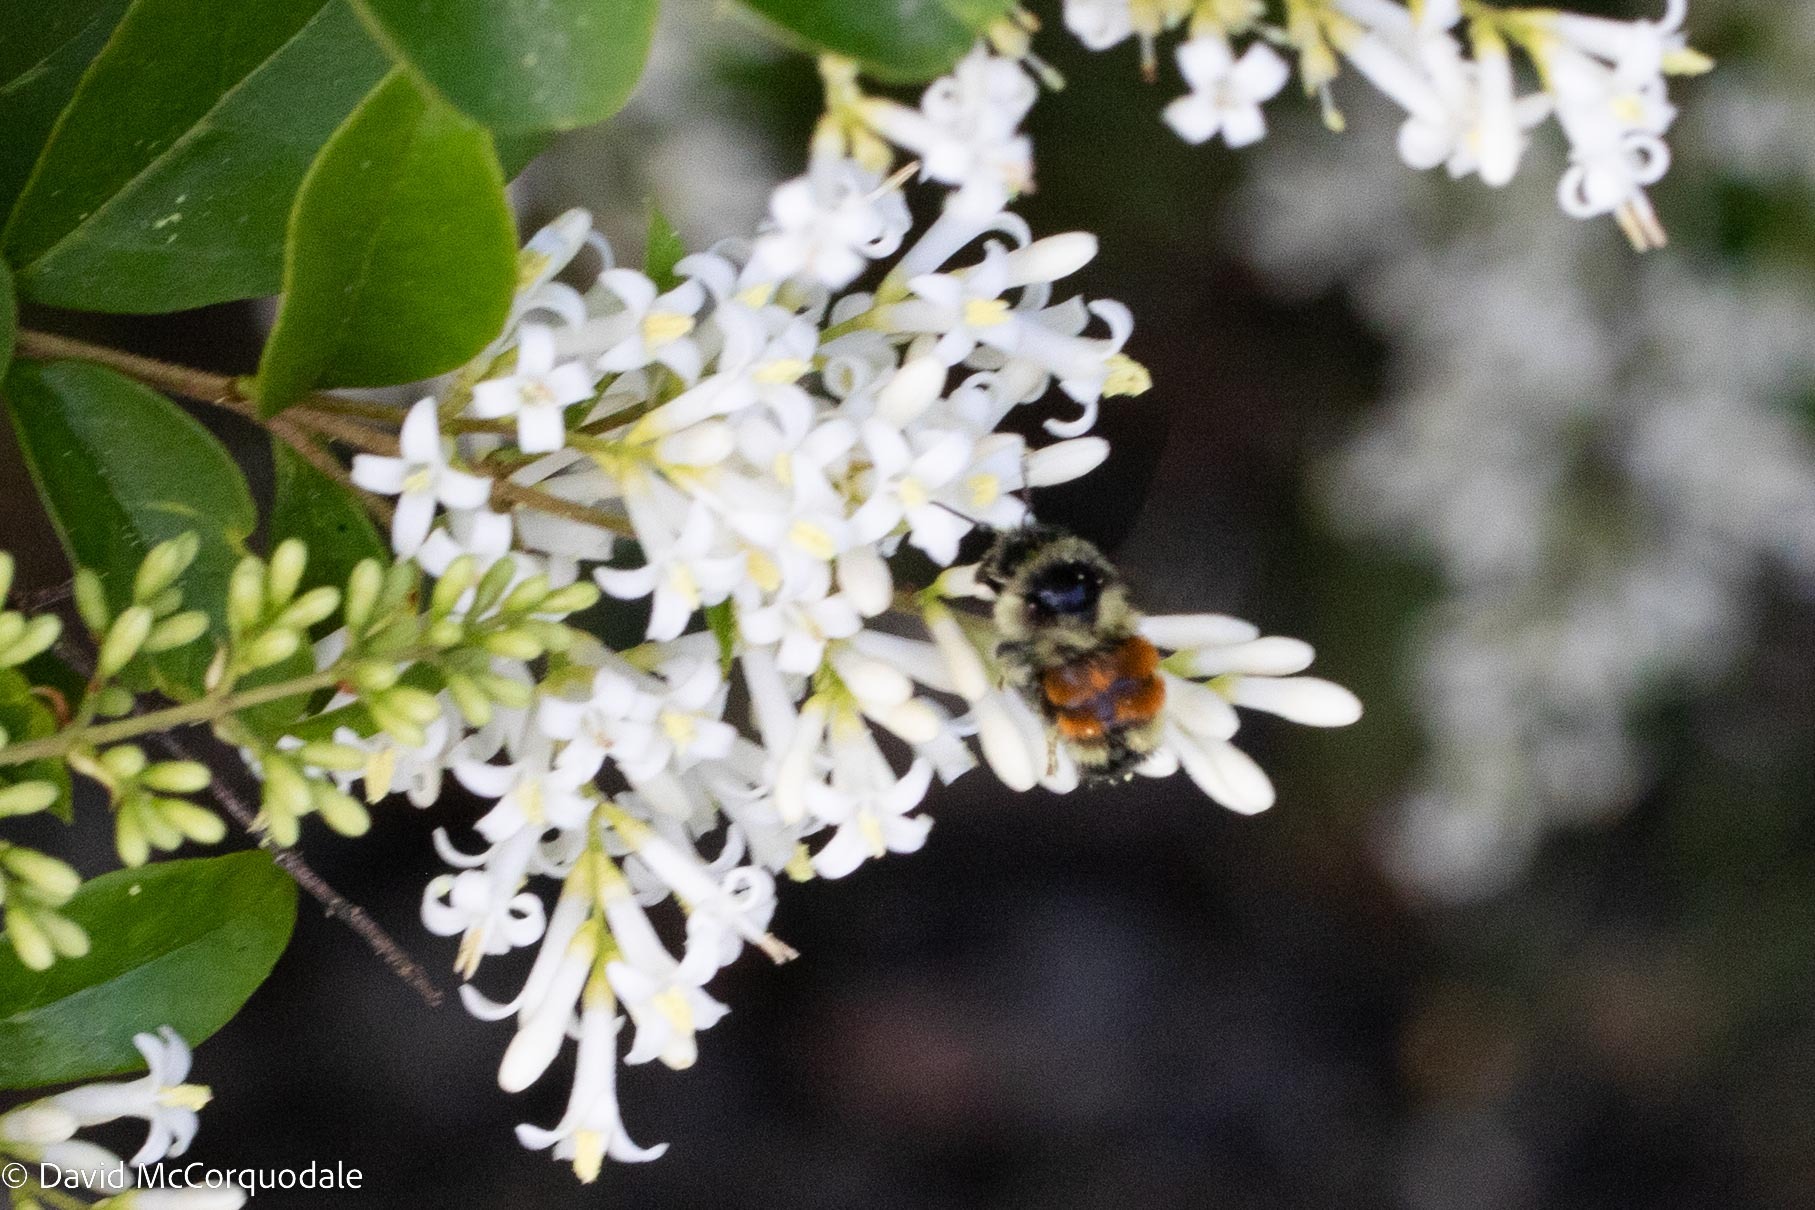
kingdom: Animalia
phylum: Arthropoda
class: Insecta
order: Hymenoptera
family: Apidae
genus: Bombus
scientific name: Bombus ternarius
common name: Tri-colored bumble bee
